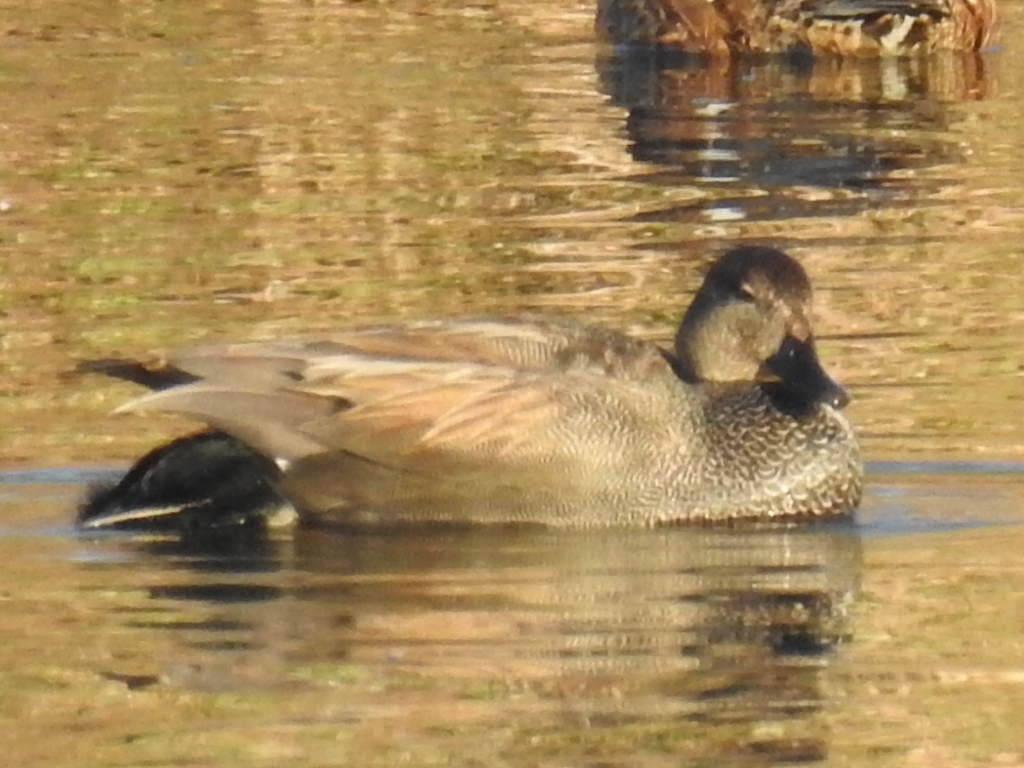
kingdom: Animalia
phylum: Chordata
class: Aves
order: Anseriformes
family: Anatidae
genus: Mareca
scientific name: Mareca strepera
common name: Gadwall
